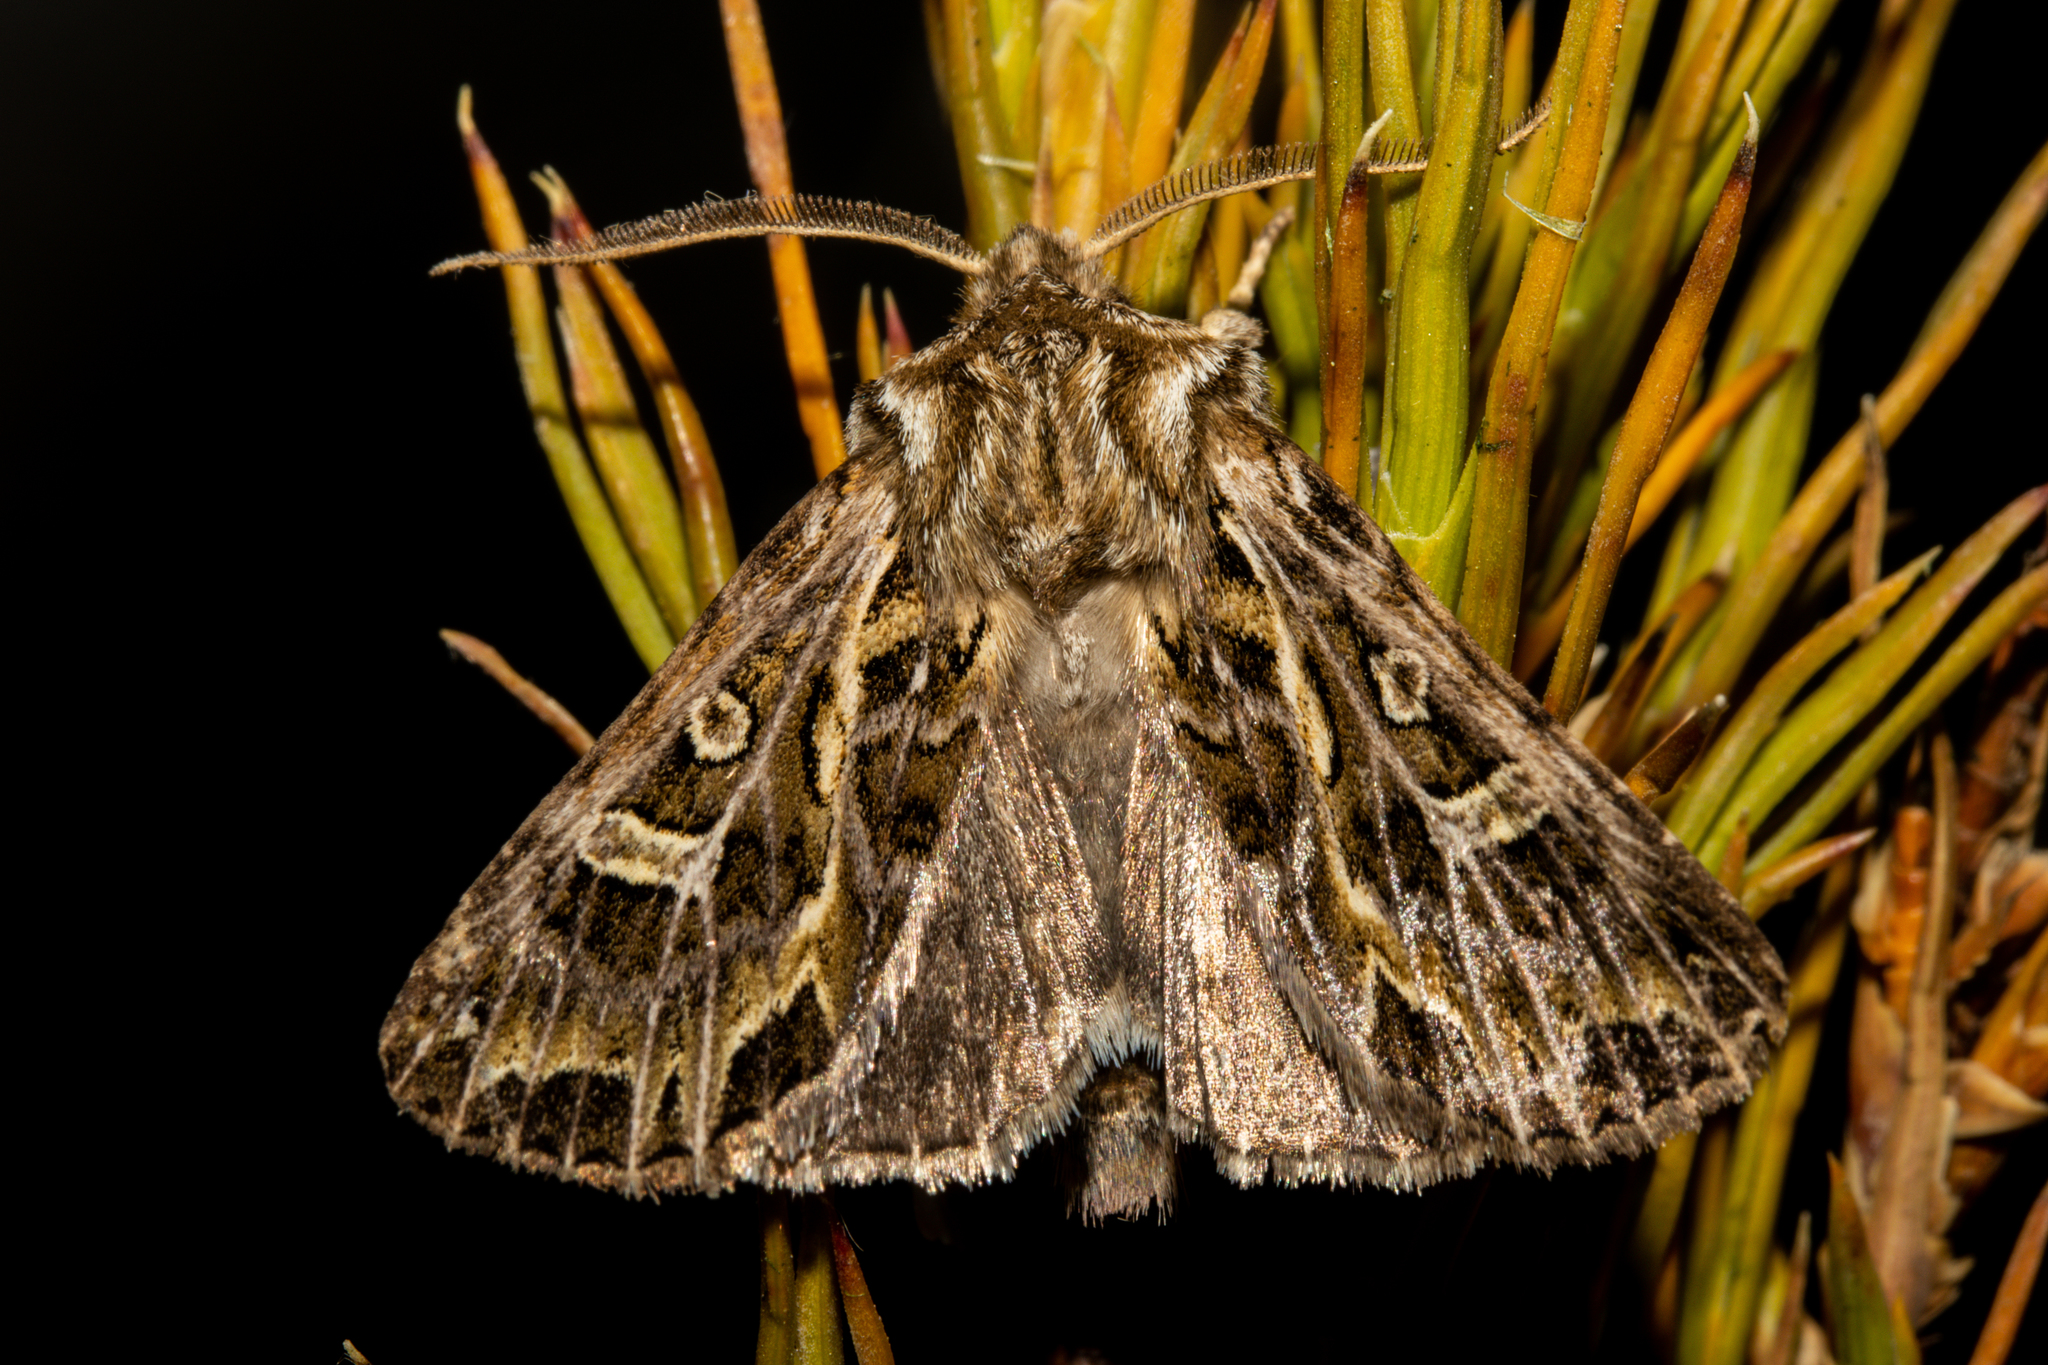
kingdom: Animalia
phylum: Arthropoda
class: Insecta
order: Lepidoptera
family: Noctuidae
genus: Ichneutica
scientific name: Ichneutica
